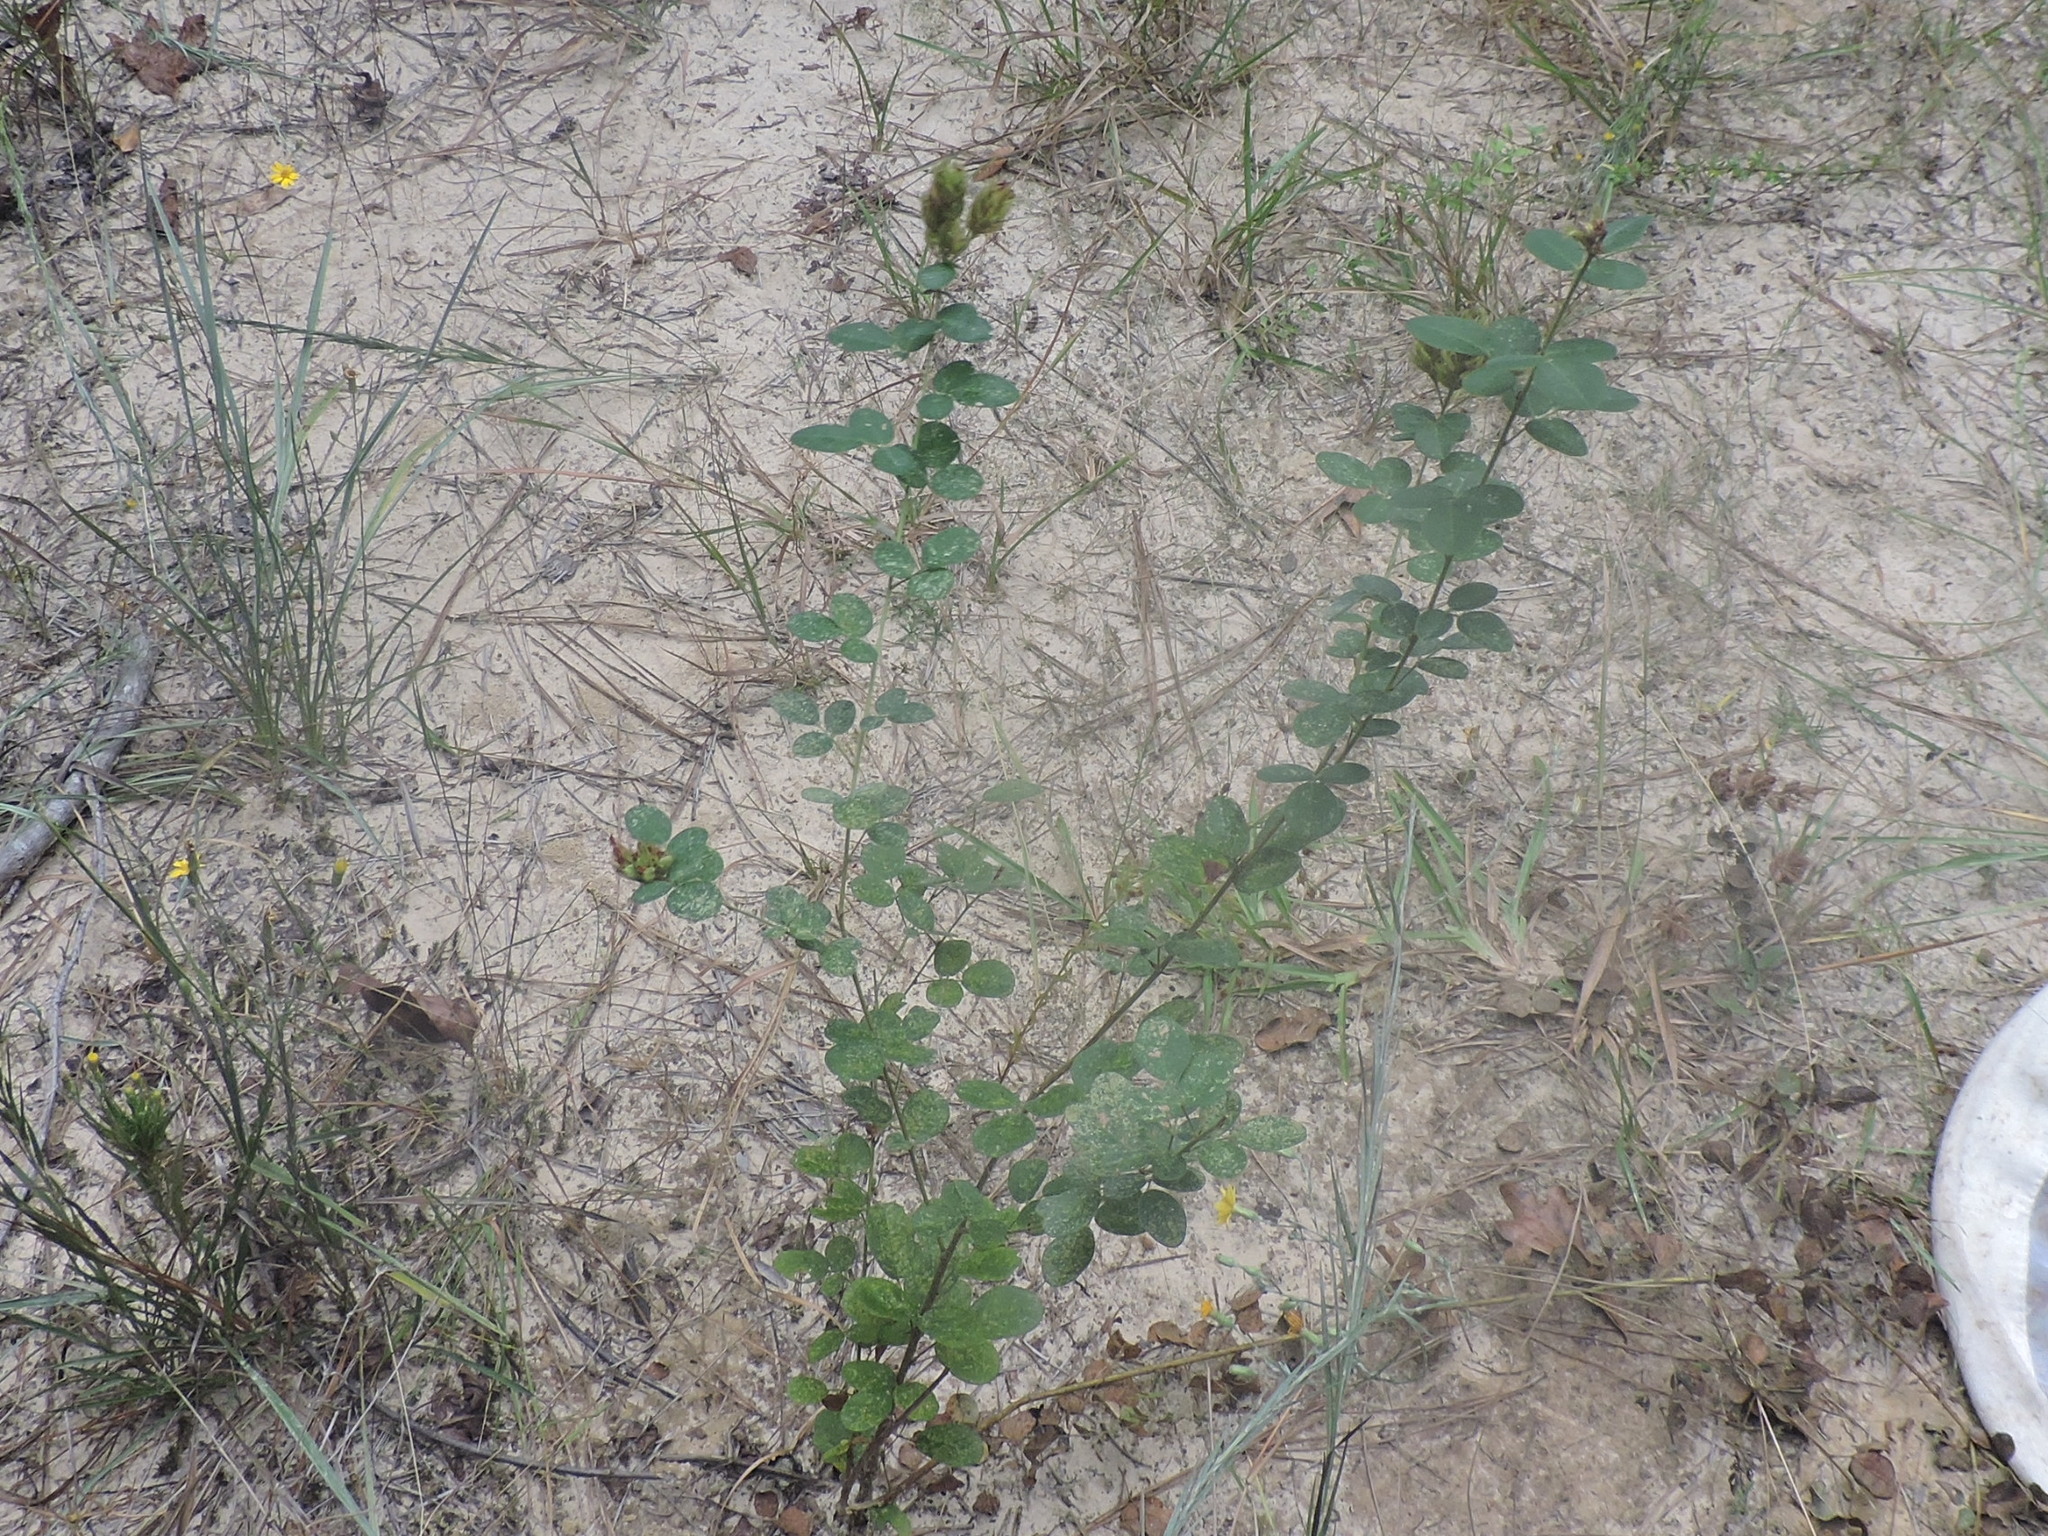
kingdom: Plantae
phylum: Tracheophyta
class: Magnoliopsida
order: Fabales
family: Fabaceae
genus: Lespedeza
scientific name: Lespedeza hirta
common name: Hairy lespedeza
